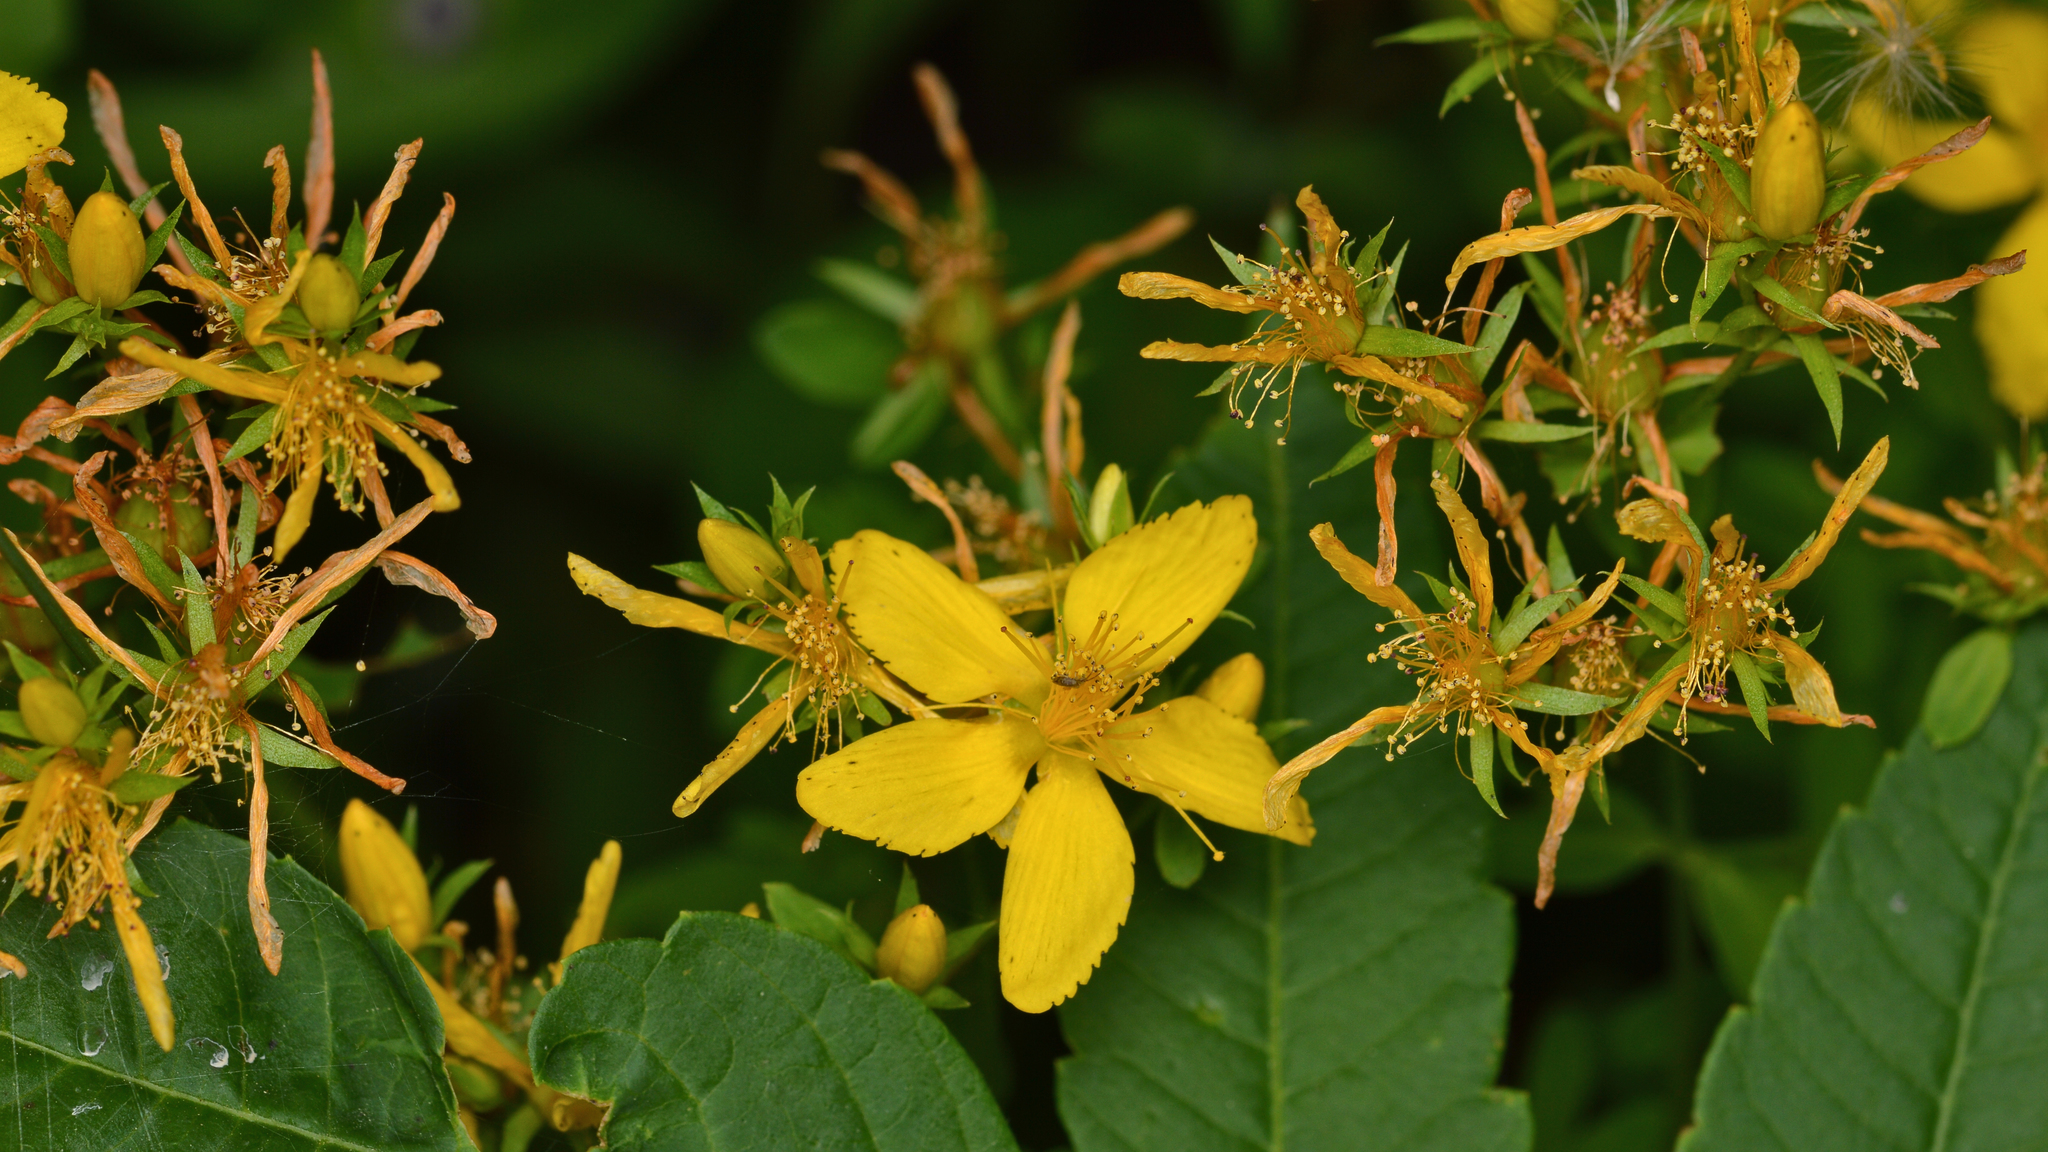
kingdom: Plantae
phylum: Tracheophyta
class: Magnoliopsida
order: Malpighiales
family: Hypericaceae
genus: Hypericum
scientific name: Hypericum perforatum
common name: Common st. johnswort
